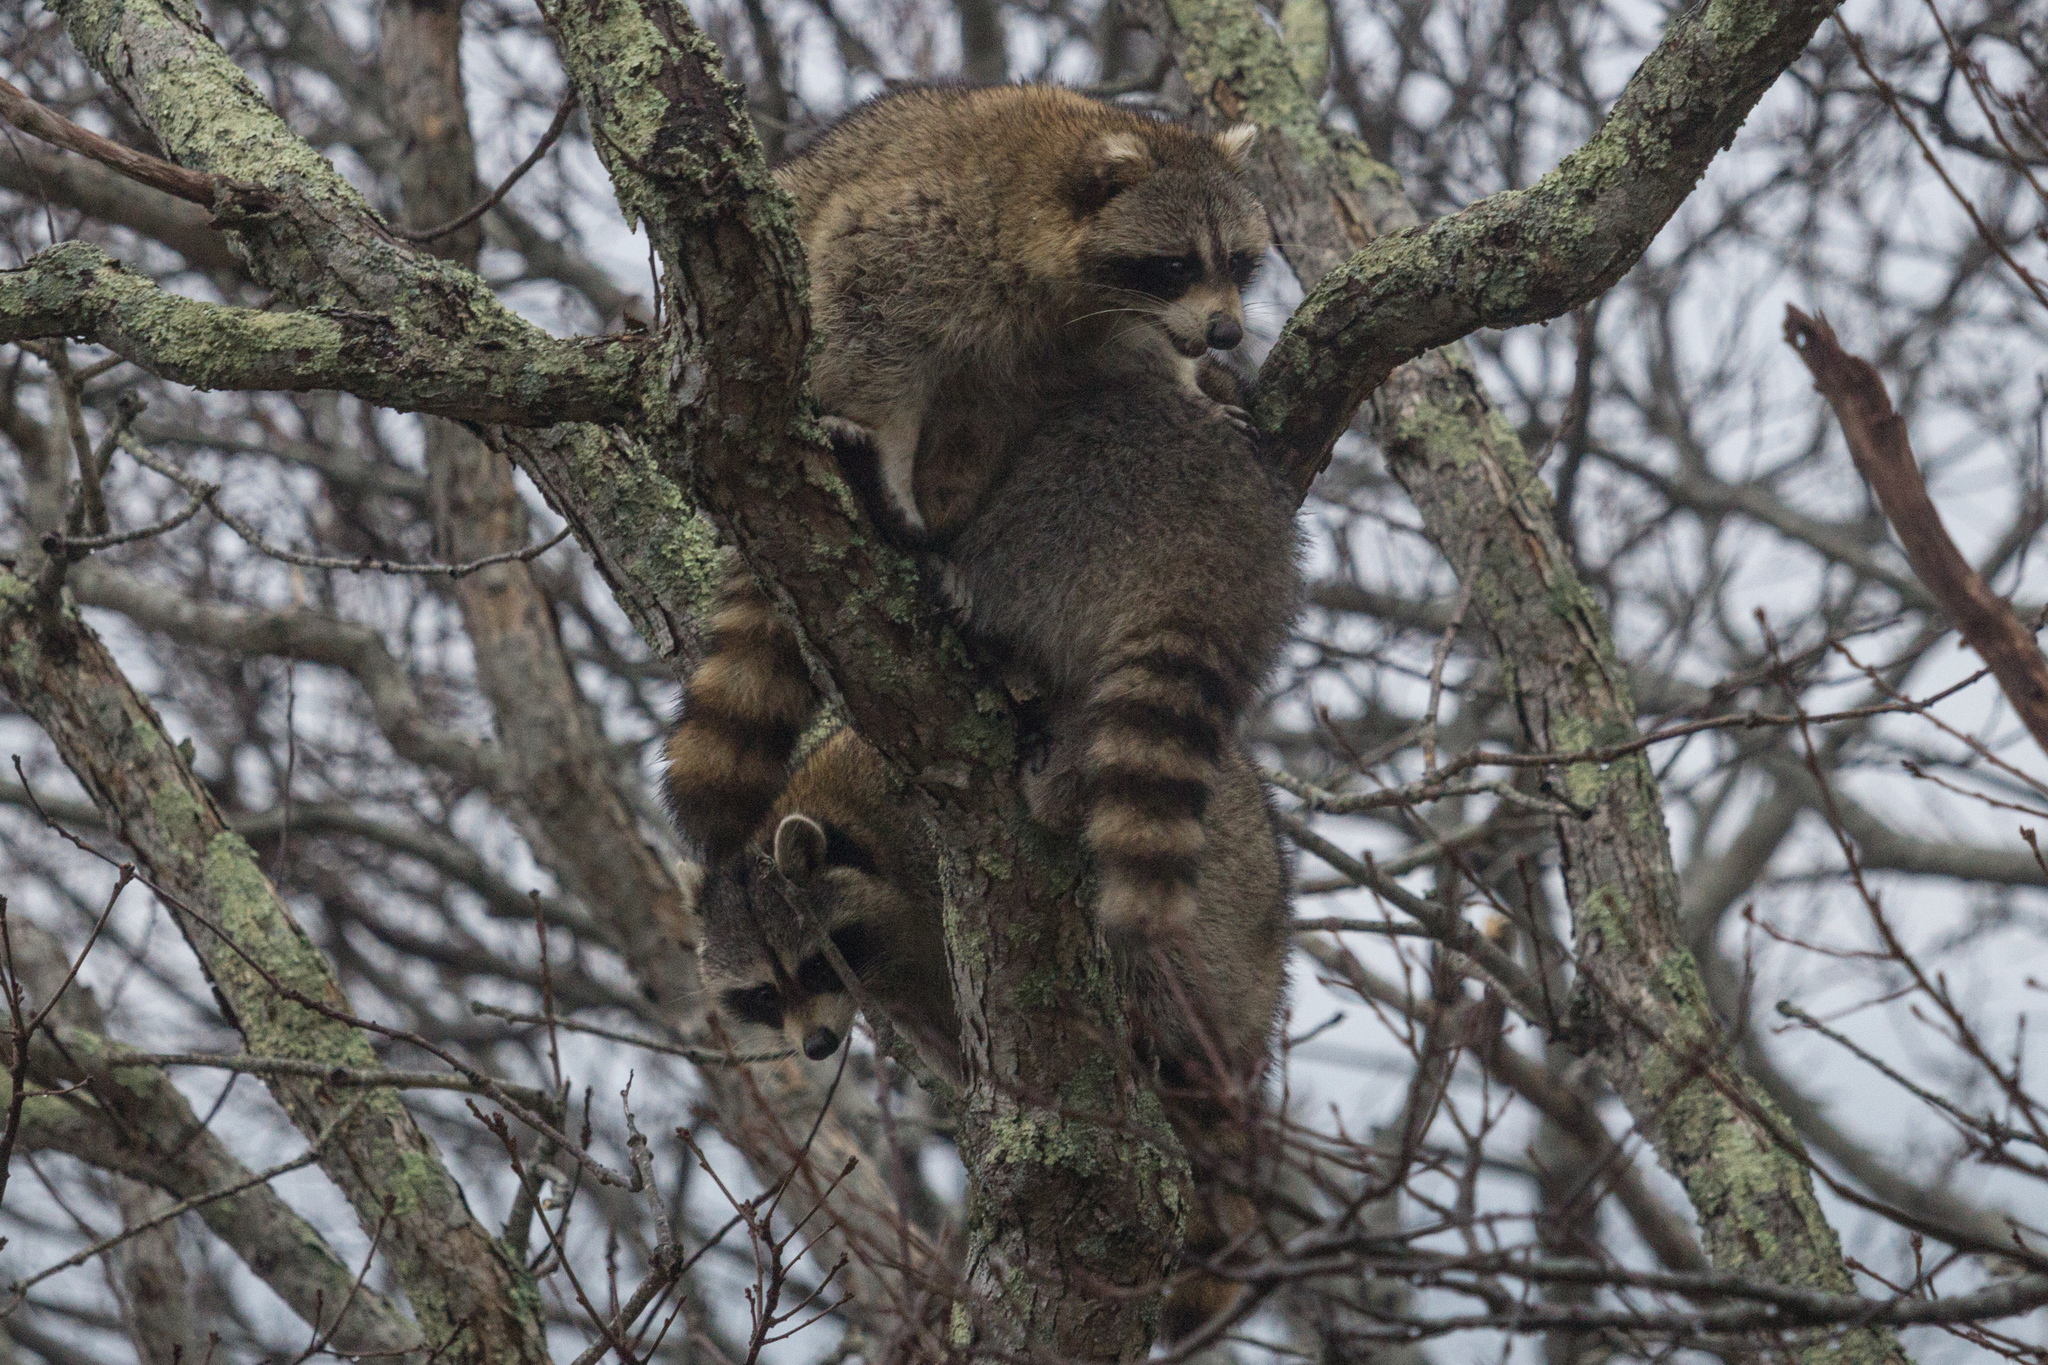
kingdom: Animalia
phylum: Chordata
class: Mammalia
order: Carnivora
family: Procyonidae
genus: Procyon
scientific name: Procyon lotor
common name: Raccoon
